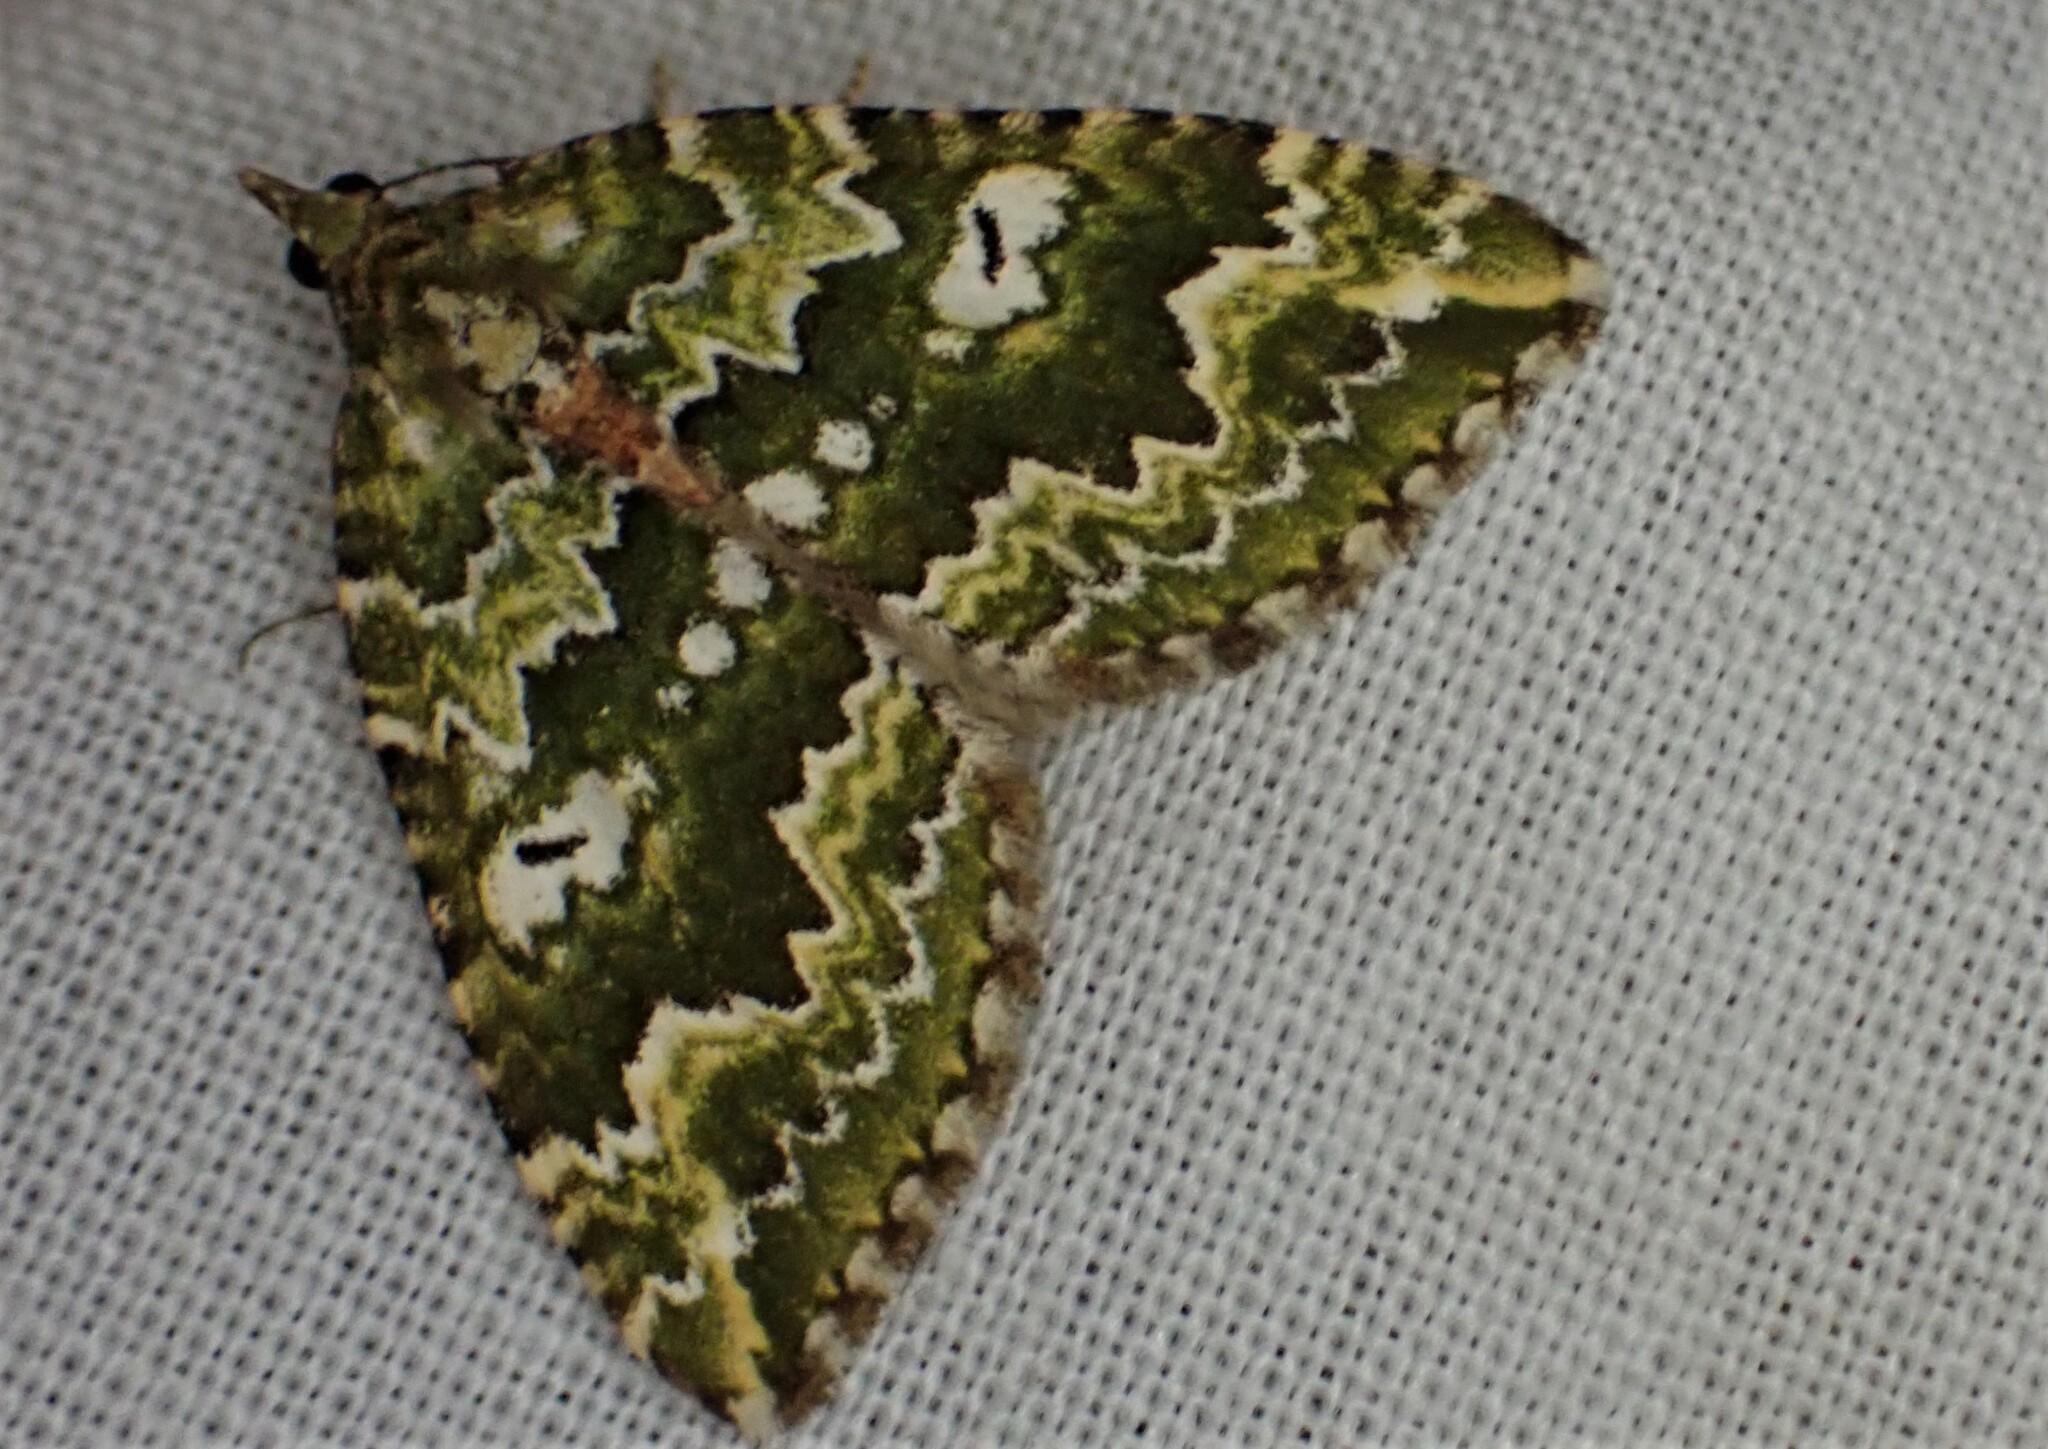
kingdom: Animalia
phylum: Arthropoda
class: Insecta
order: Lepidoptera
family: Geometridae
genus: Asaphodes
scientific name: Asaphodes beata
